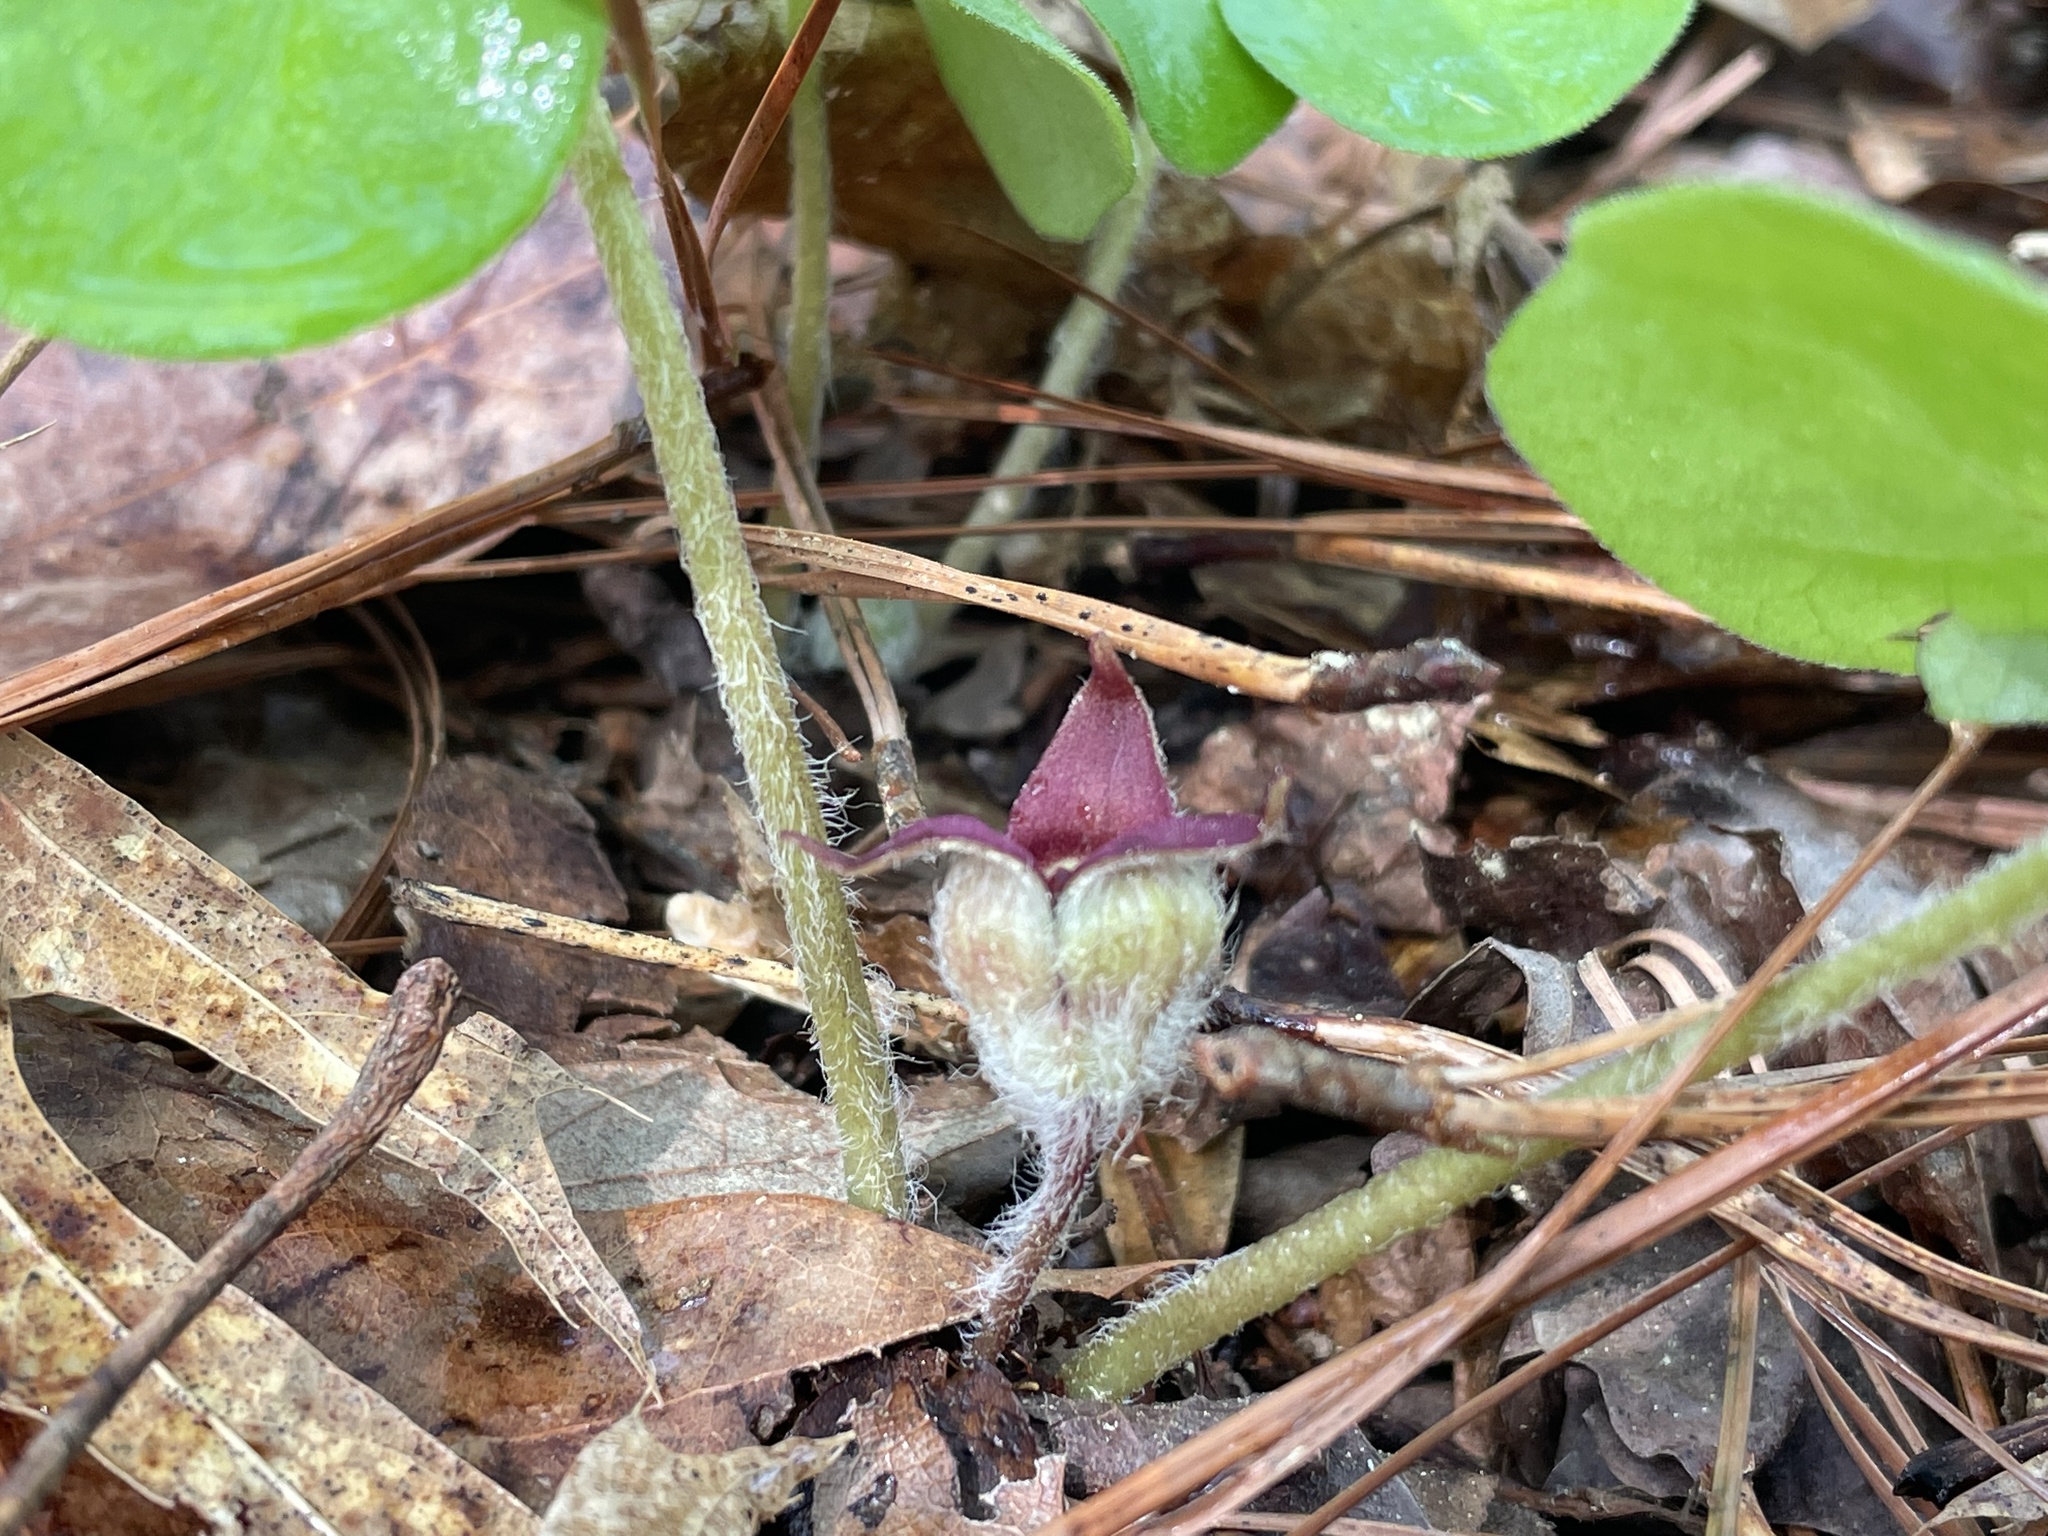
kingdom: Plantae
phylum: Tracheophyta
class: Magnoliopsida
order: Piperales
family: Aristolochiaceae
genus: Asarum
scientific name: Asarum canadense
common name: Wild ginger
